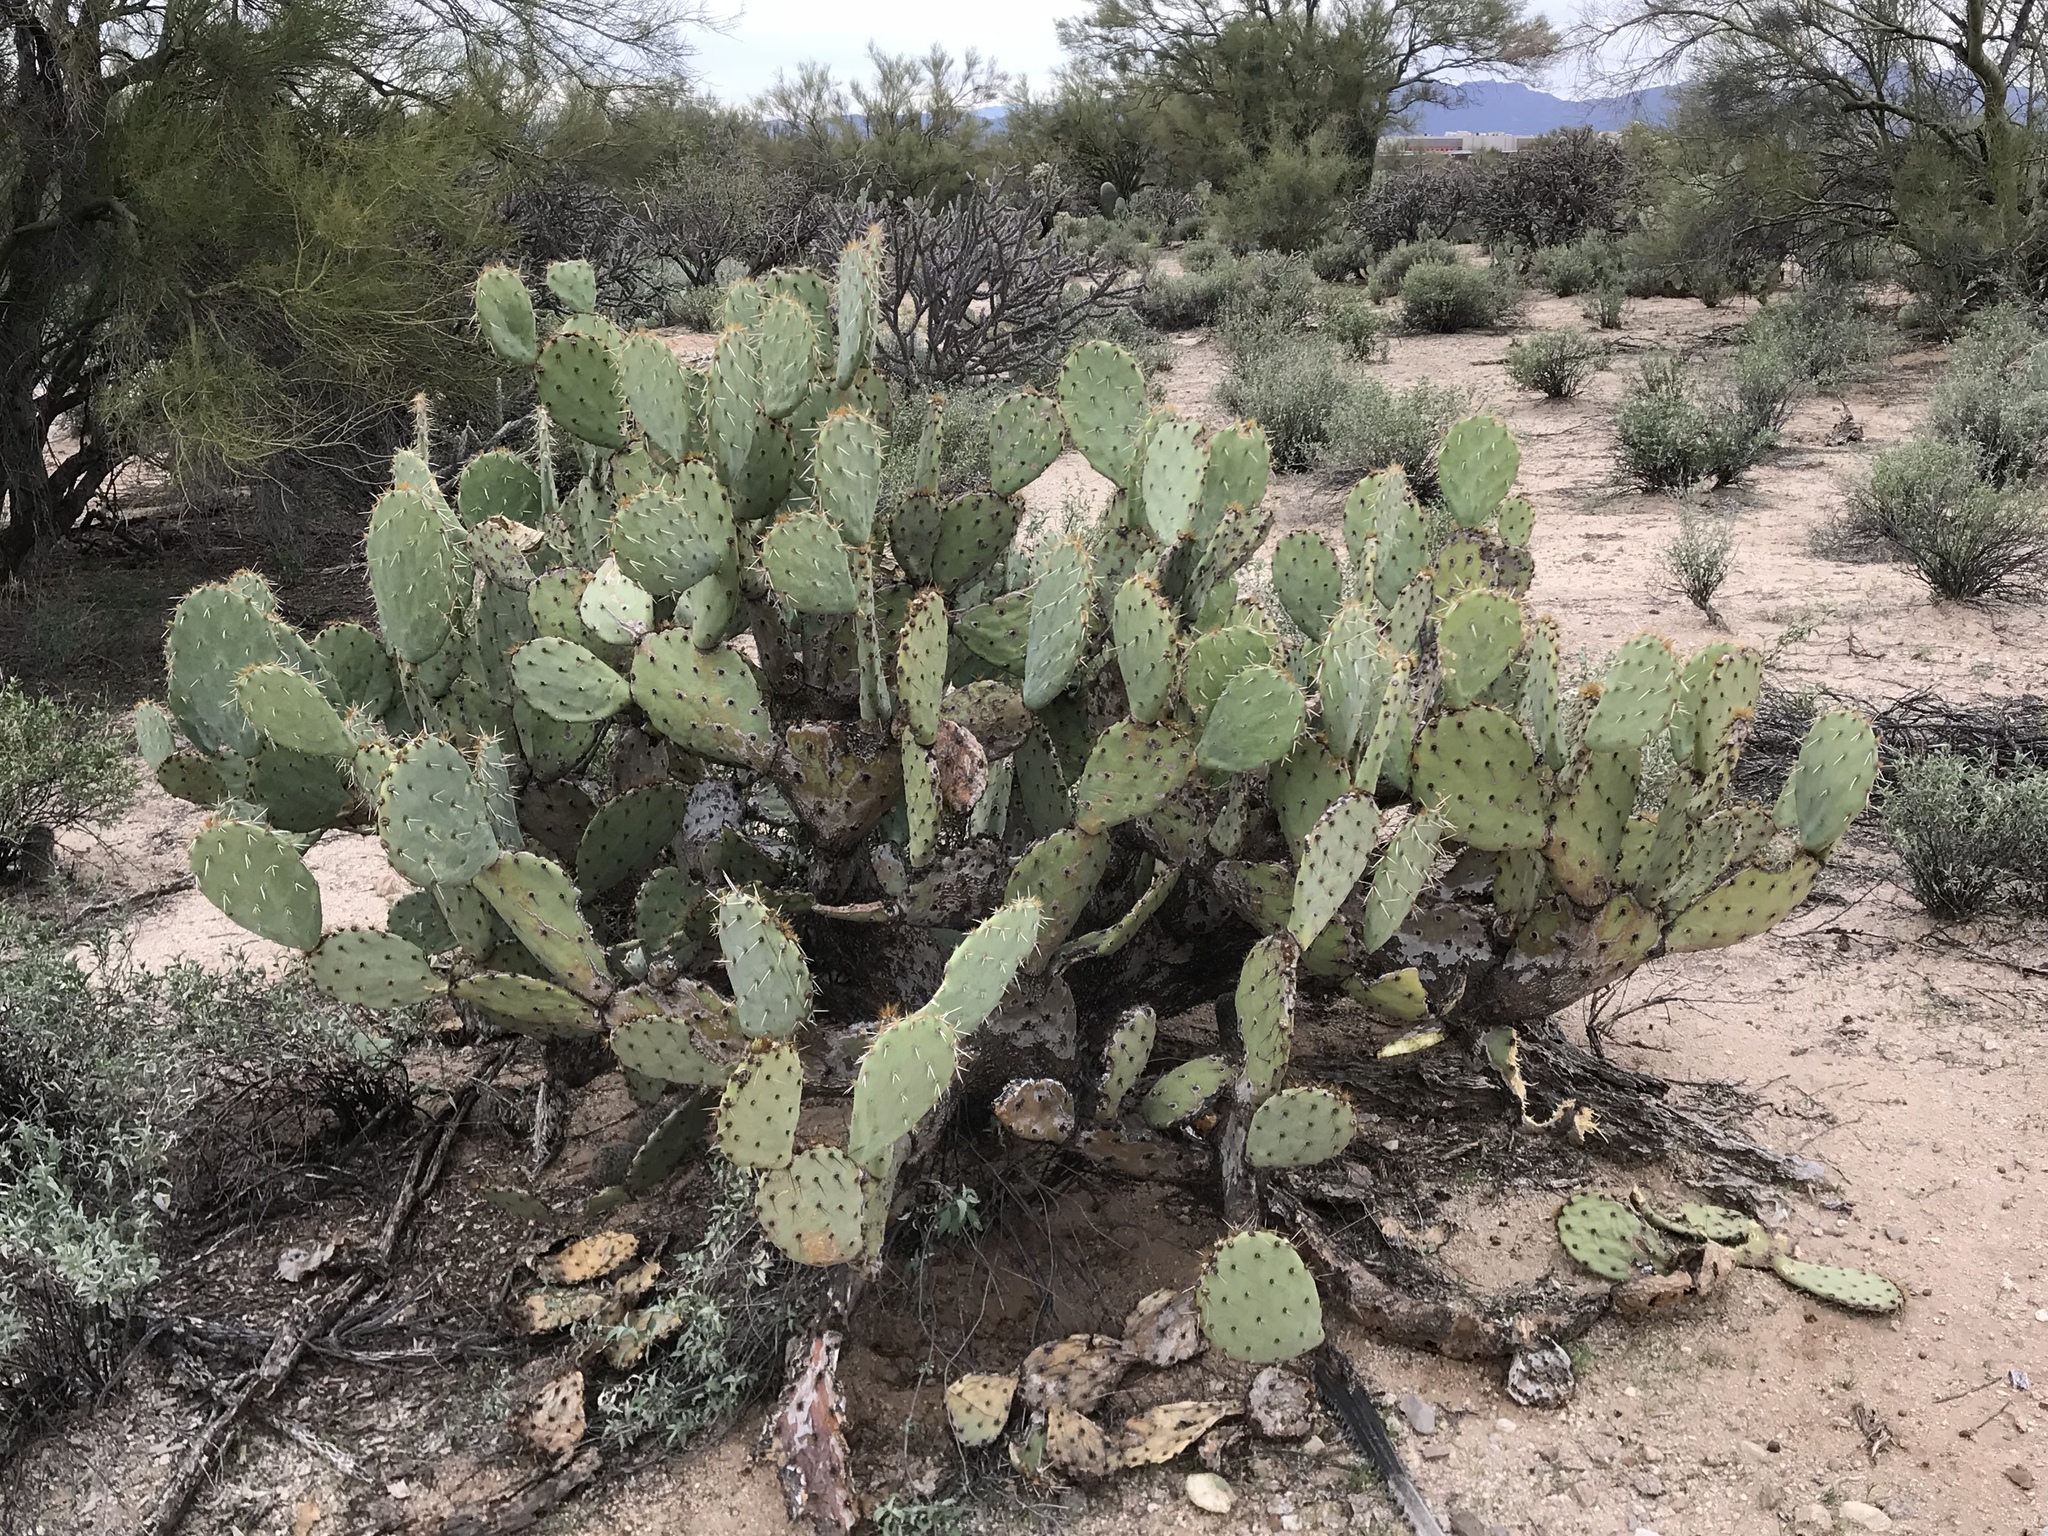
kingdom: Plantae
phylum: Tracheophyta
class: Magnoliopsida
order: Caryophyllales
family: Cactaceae
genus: Opuntia
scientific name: Opuntia engelmannii
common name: Cactus-apple
